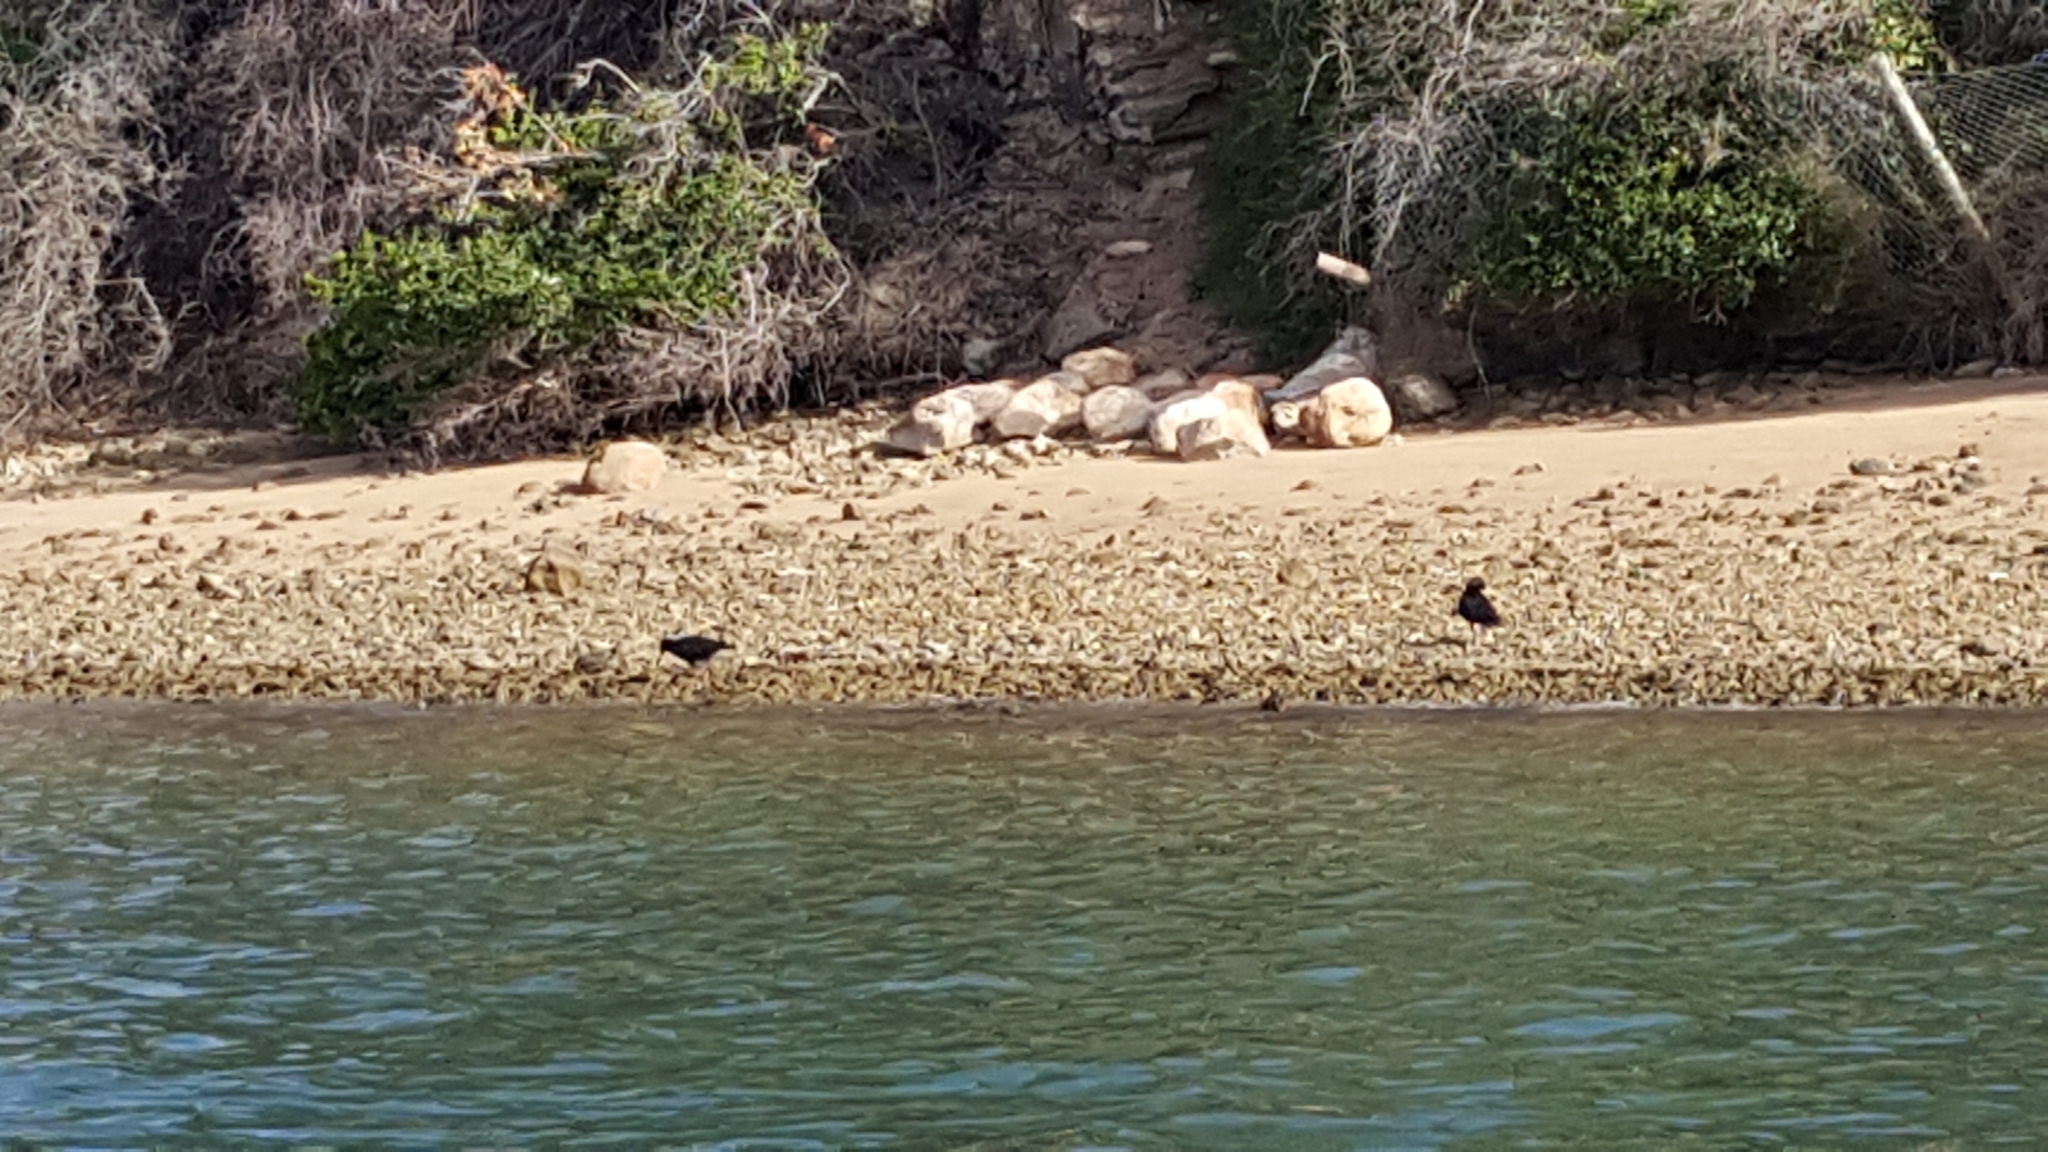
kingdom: Animalia
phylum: Chordata
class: Aves
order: Charadriiformes
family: Haematopodidae
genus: Haematopus
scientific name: Haematopus moquini
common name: African oystercatcher
